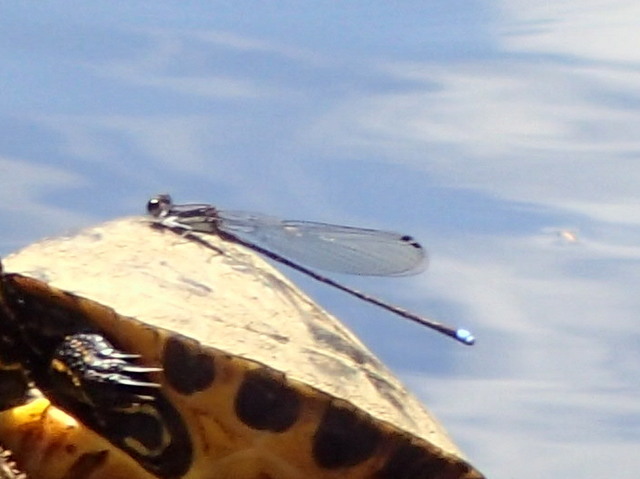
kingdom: Animalia
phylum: Arthropoda
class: Insecta
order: Odonata
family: Coenagrionidae
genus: Argia
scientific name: Argia tibialis
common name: Blue-tipped dancer
